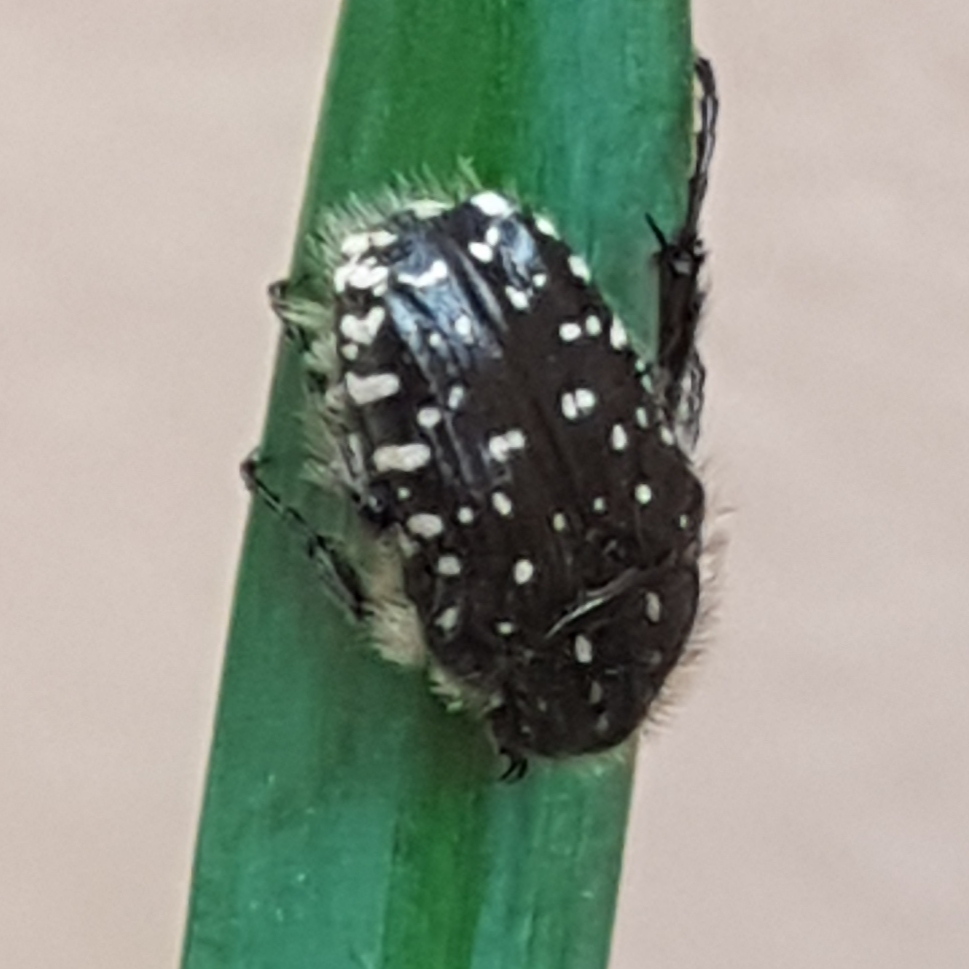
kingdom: Animalia
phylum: Arthropoda
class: Insecta
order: Coleoptera
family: Scarabaeidae
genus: Oxythyrea
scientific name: Oxythyrea funesta
